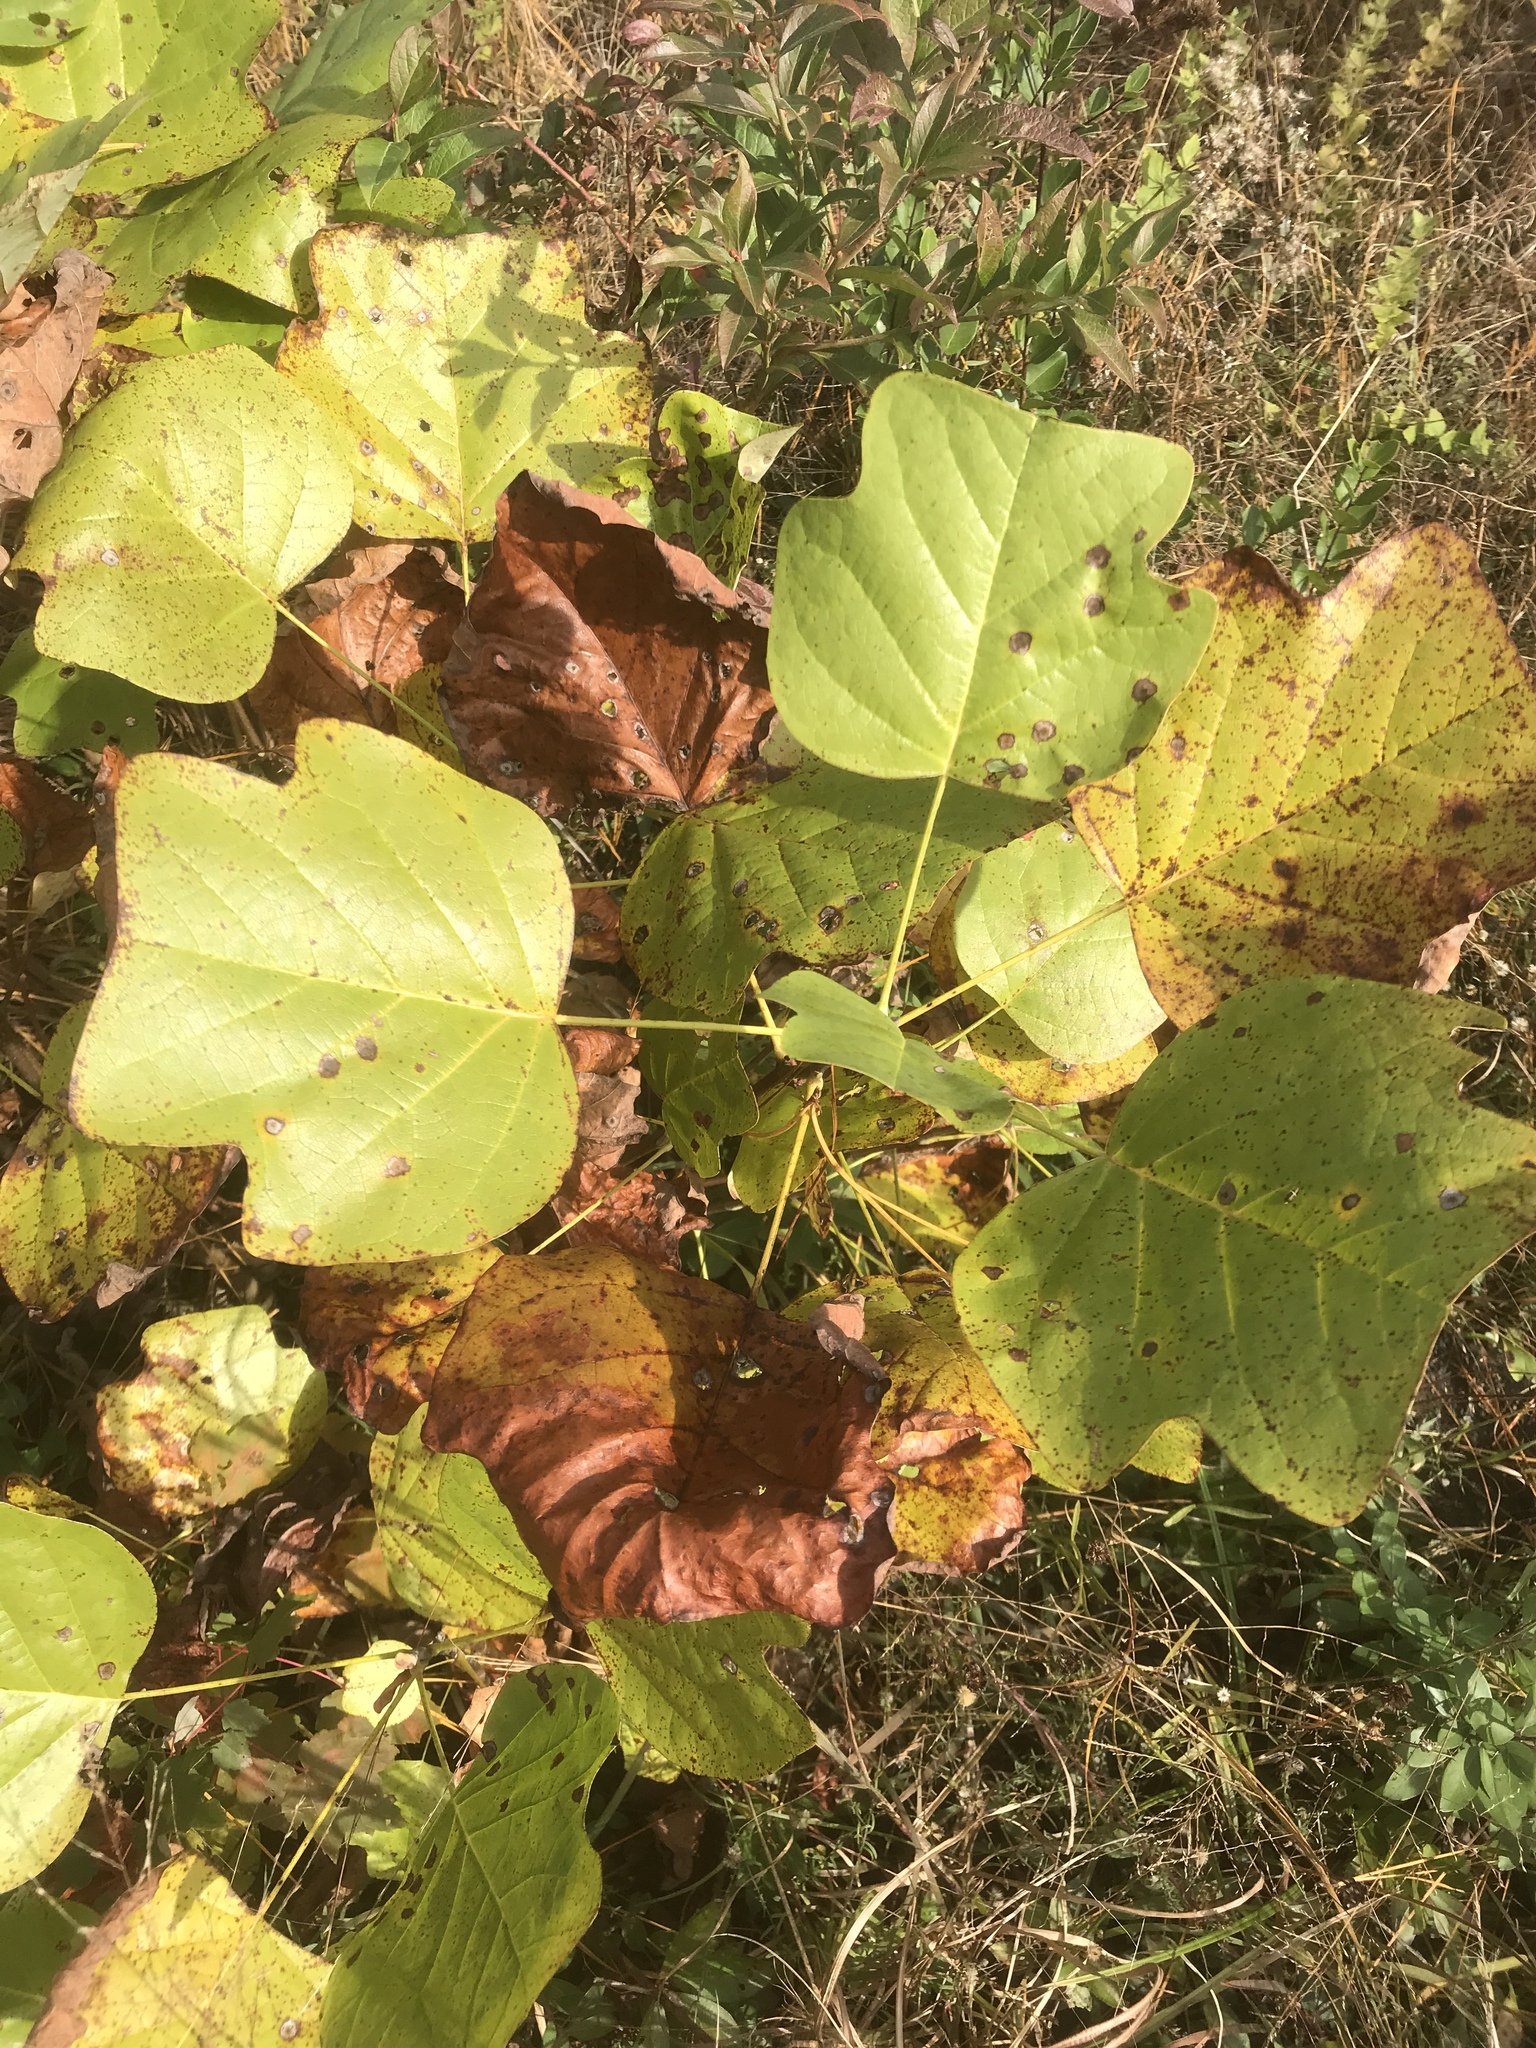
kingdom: Plantae
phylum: Tracheophyta
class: Magnoliopsida
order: Magnoliales
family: Magnoliaceae
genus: Liriodendron
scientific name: Liriodendron tulipifera
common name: Tulip tree
